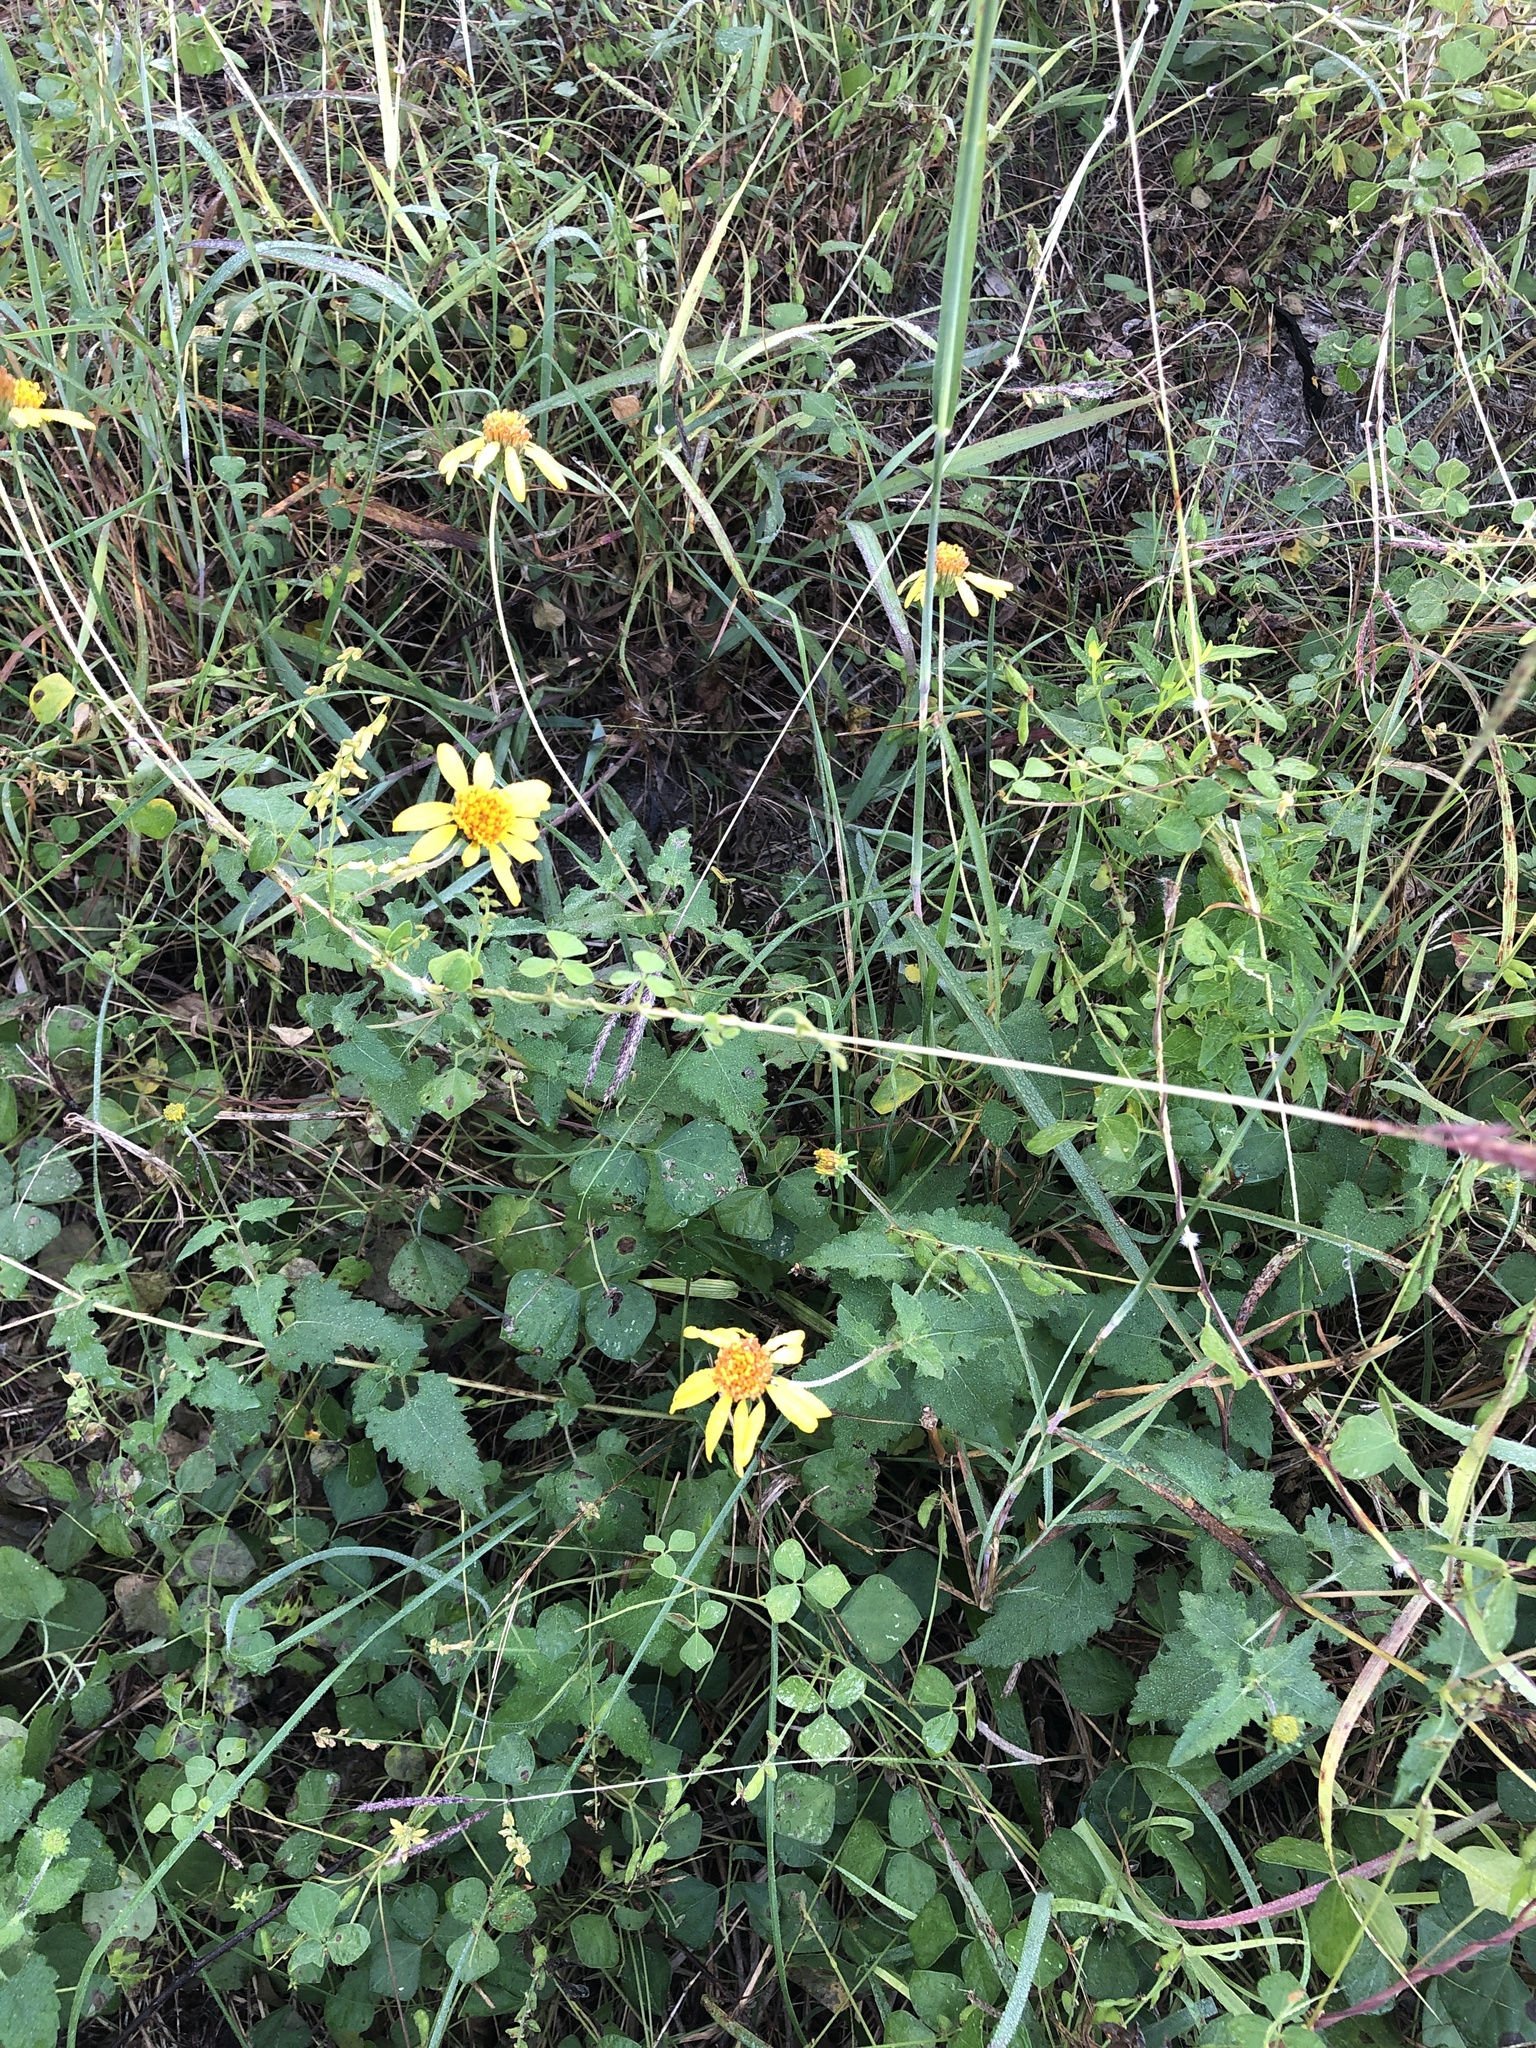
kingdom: Plantae
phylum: Tracheophyta
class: Magnoliopsida
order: Asterales
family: Asteraceae
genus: Simsia
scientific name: Simsia calva
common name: Awnless bush-sunflower
